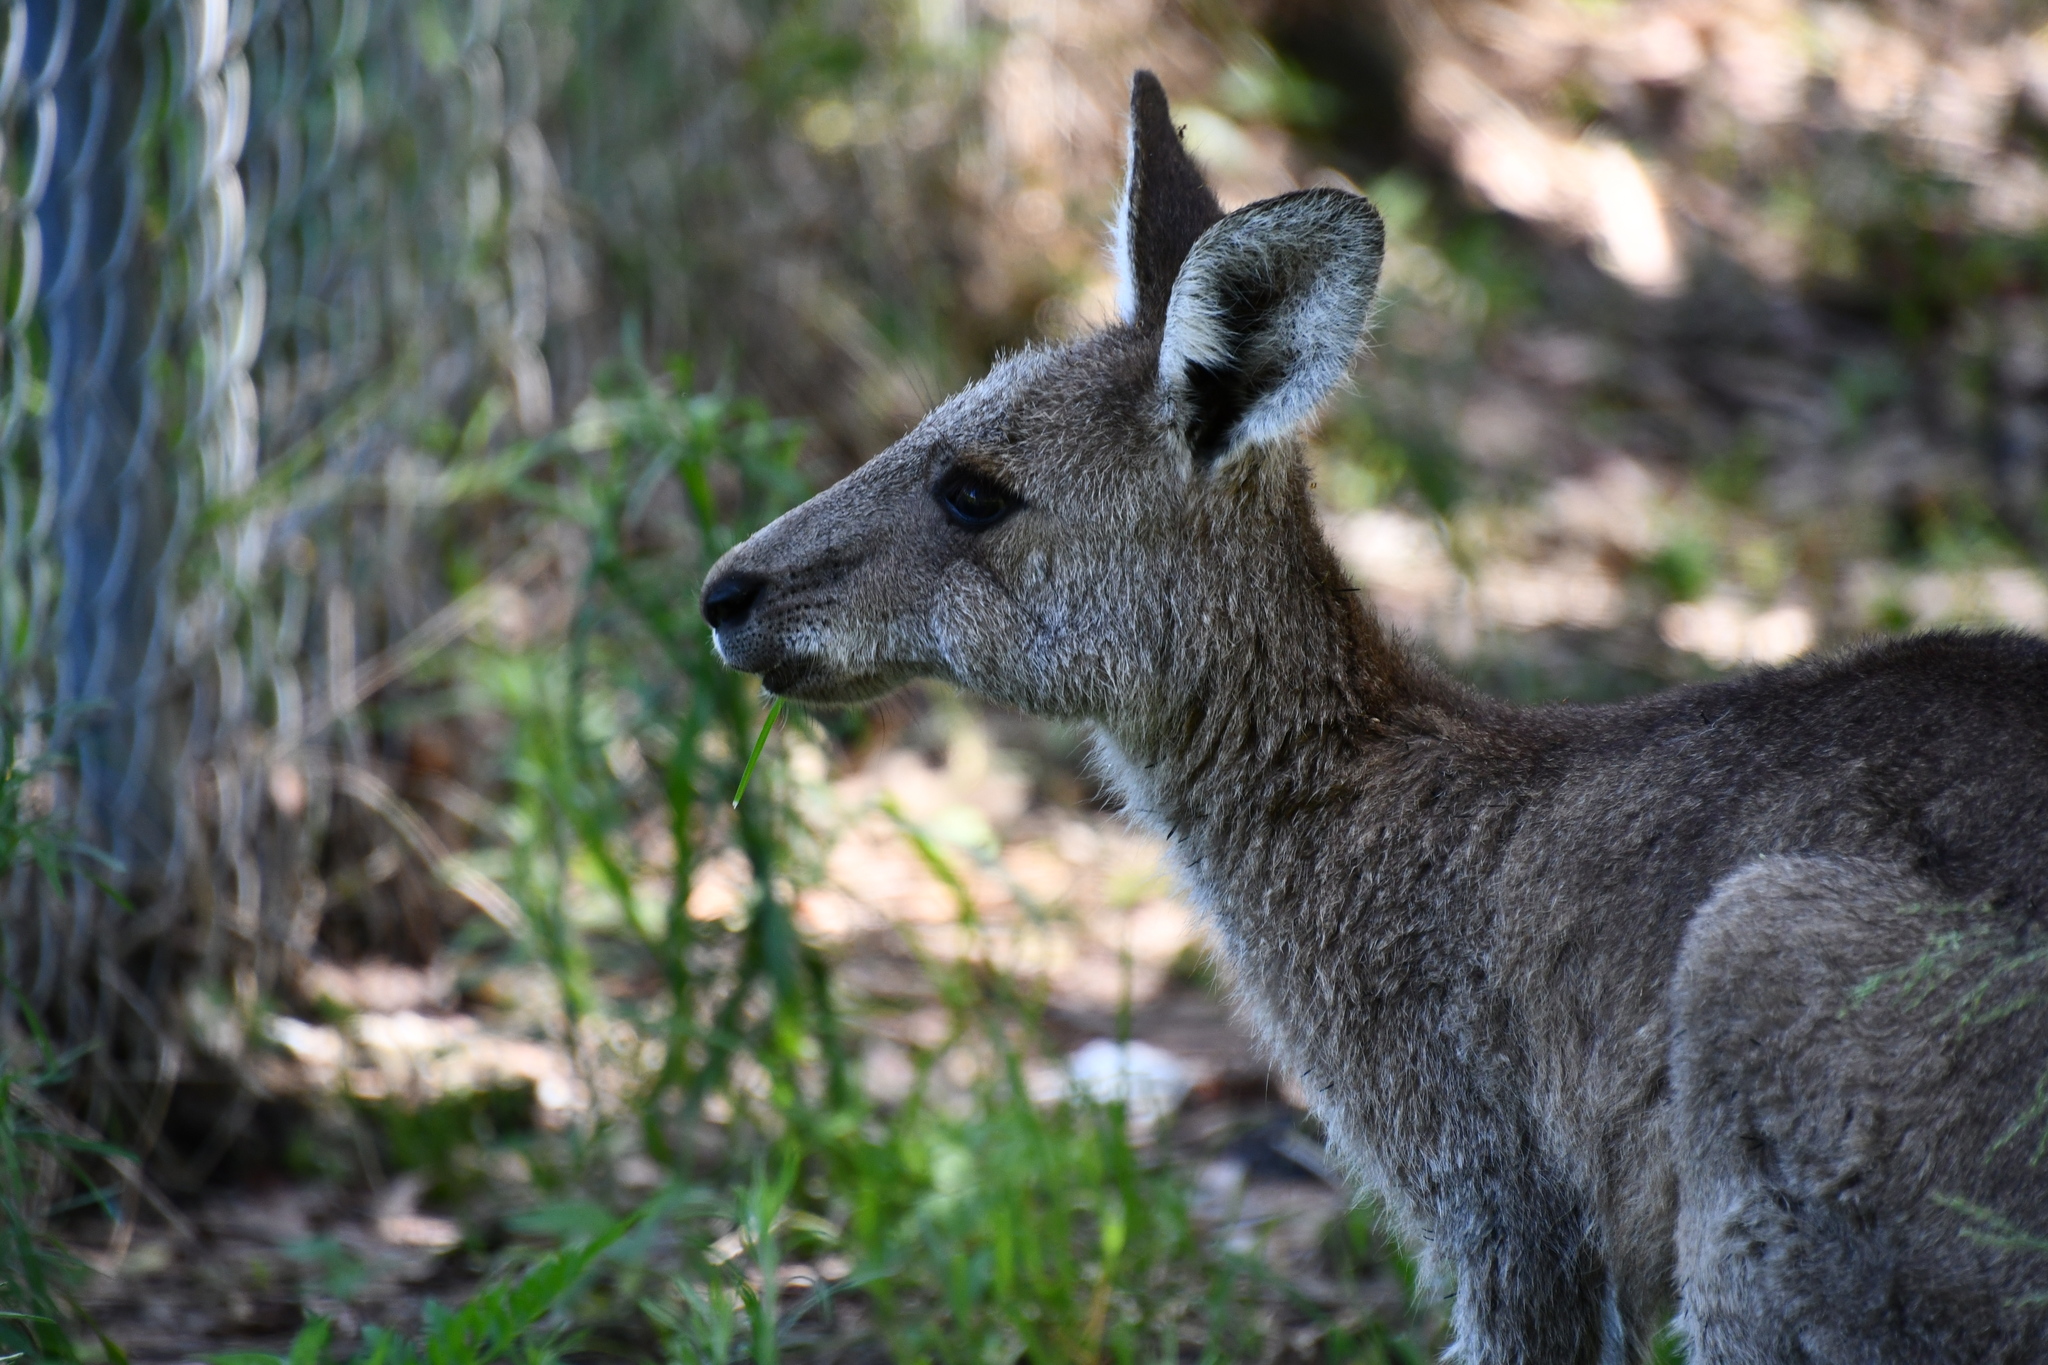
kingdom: Animalia
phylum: Chordata
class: Mammalia
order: Diprotodontia
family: Macropodidae
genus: Macropus
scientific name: Macropus giganteus
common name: Eastern grey kangaroo
